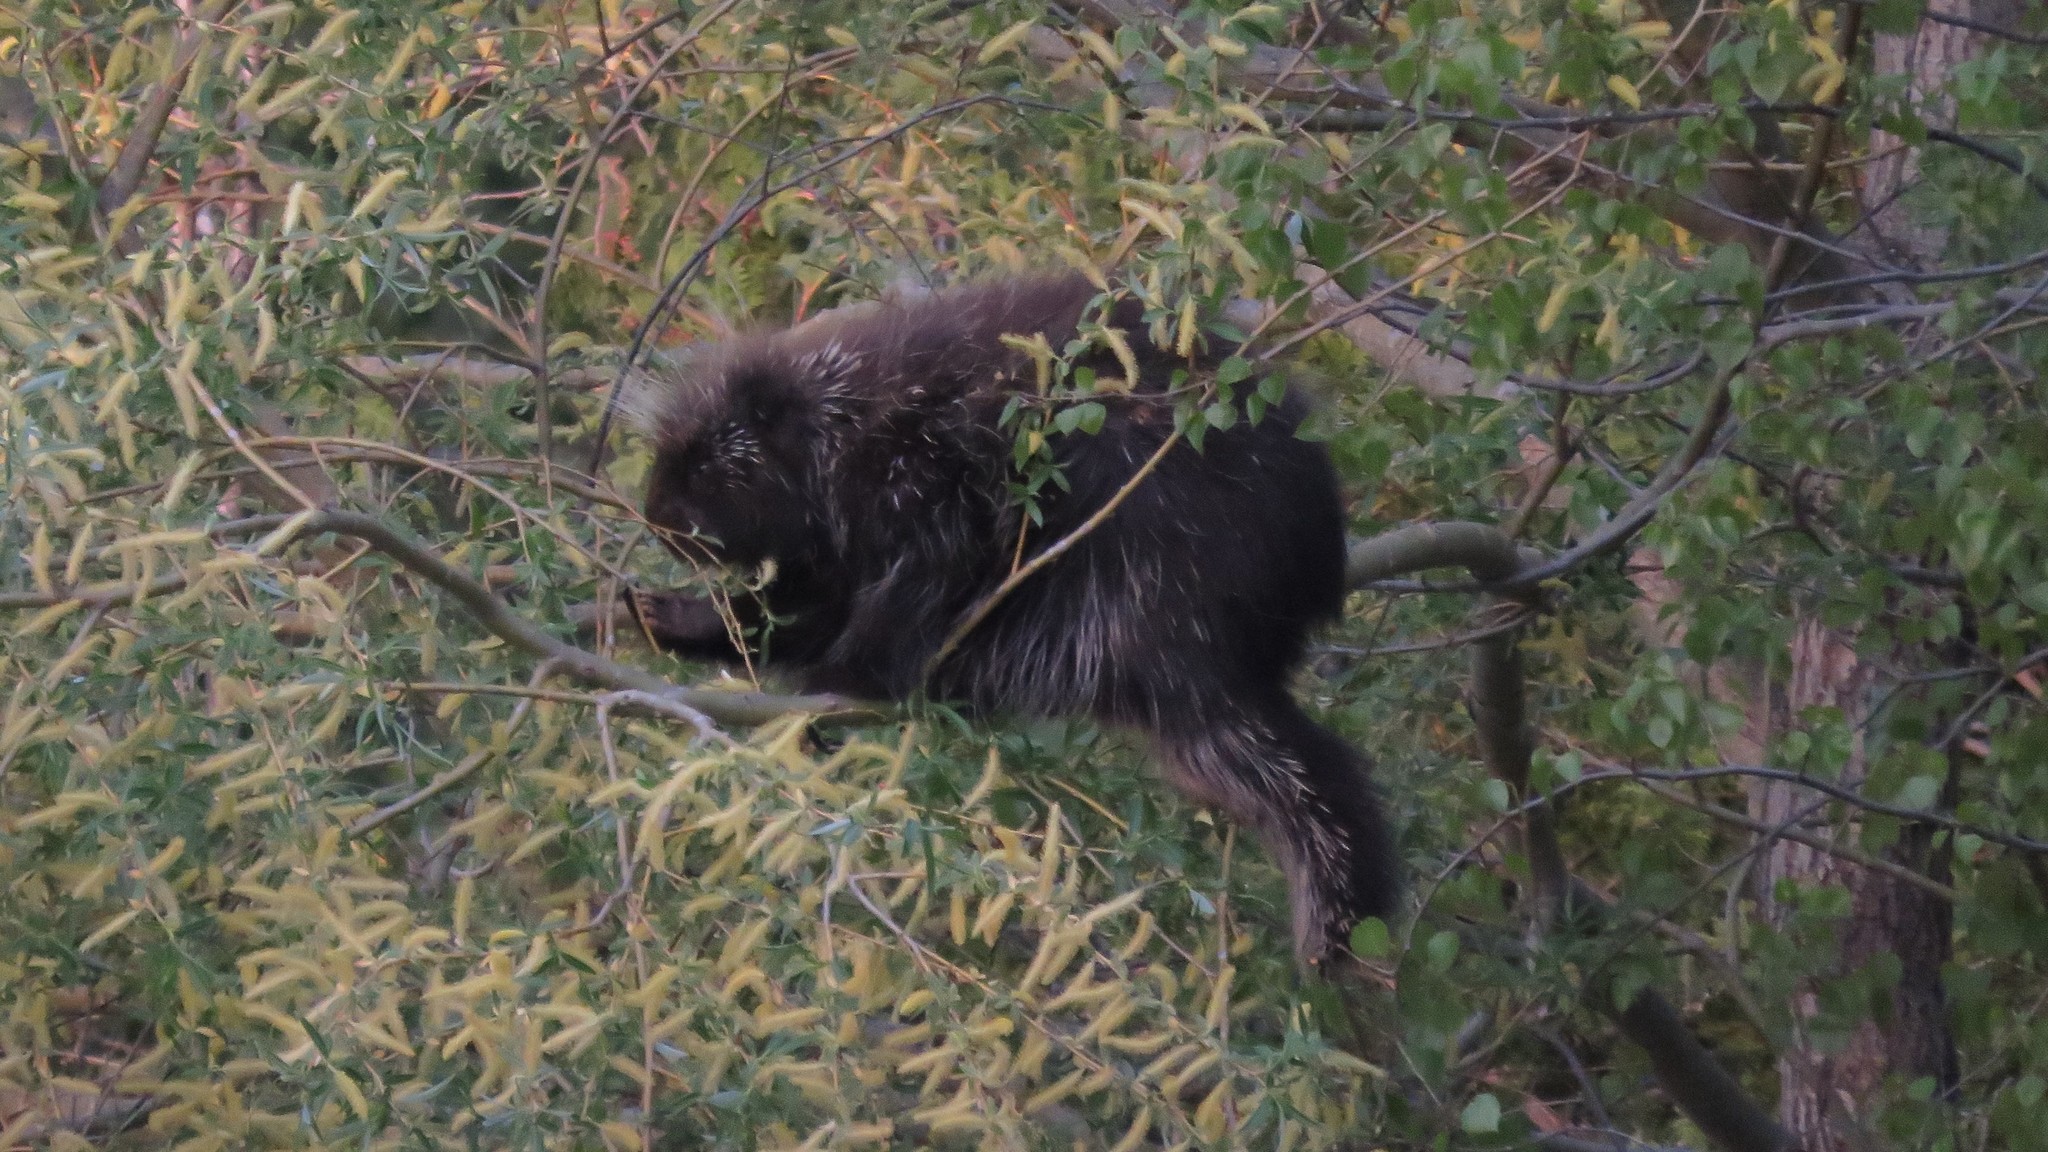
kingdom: Animalia
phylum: Chordata
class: Mammalia
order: Rodentia
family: Erethizontidae
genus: Erethizon
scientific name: Erethizon dorsatus
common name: North american porcupine
